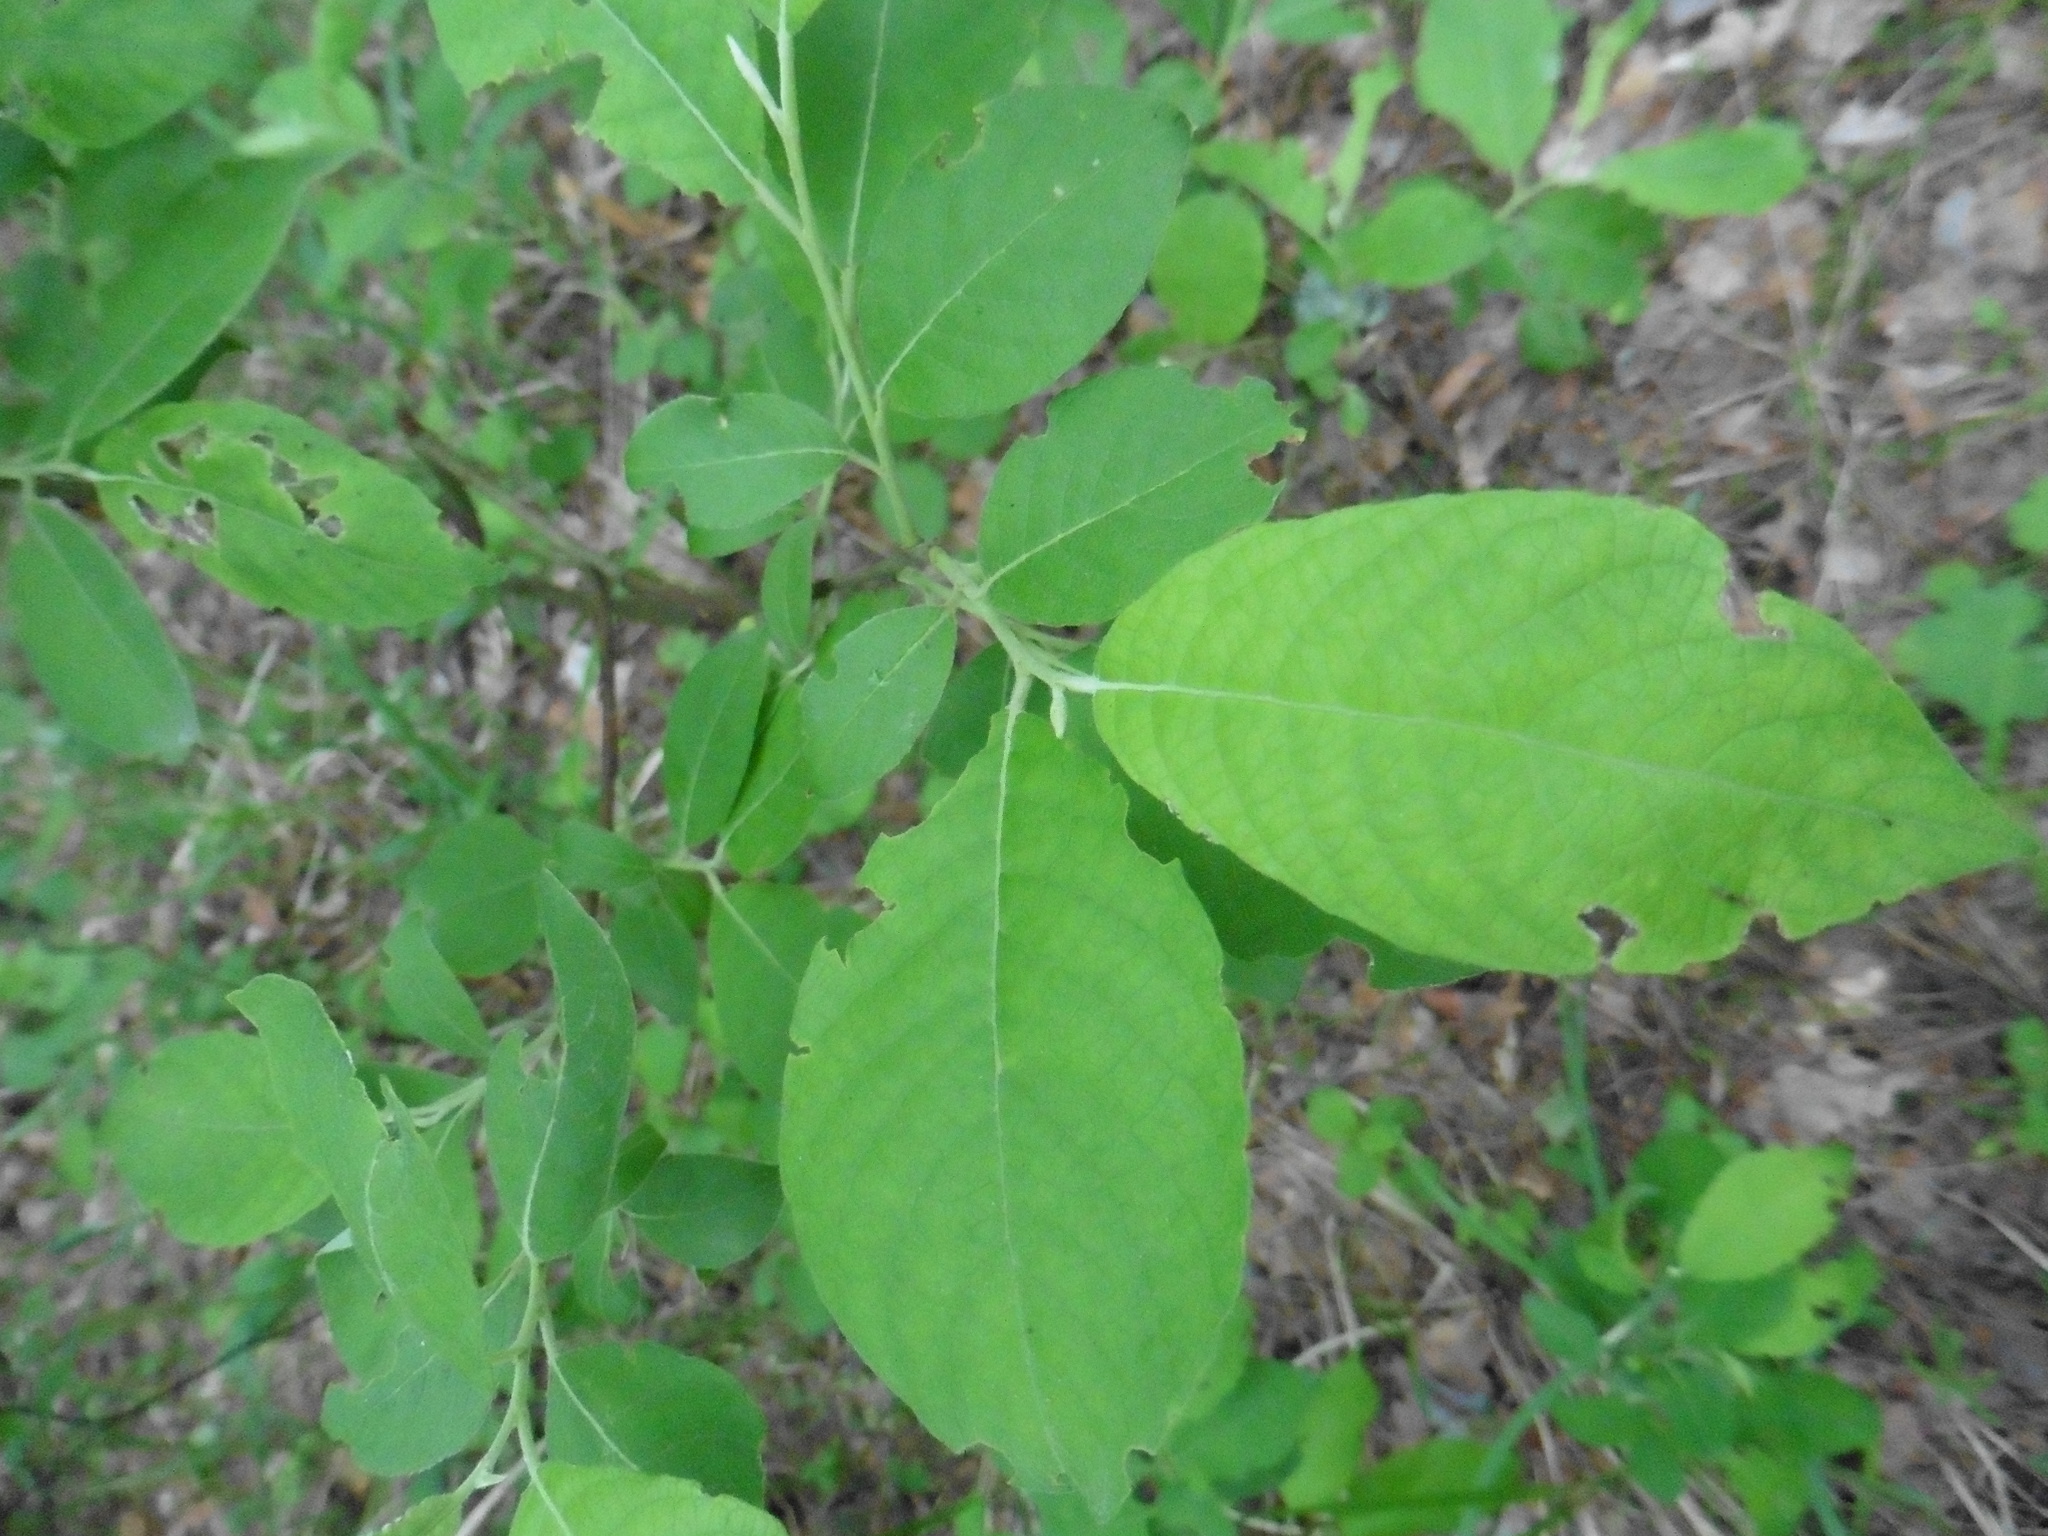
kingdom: Plantae
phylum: Tracheophyta
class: Magnoliopsida
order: Malpighiales
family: Salicaceae
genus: Salix
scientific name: Salix caprea
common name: Goat willow
